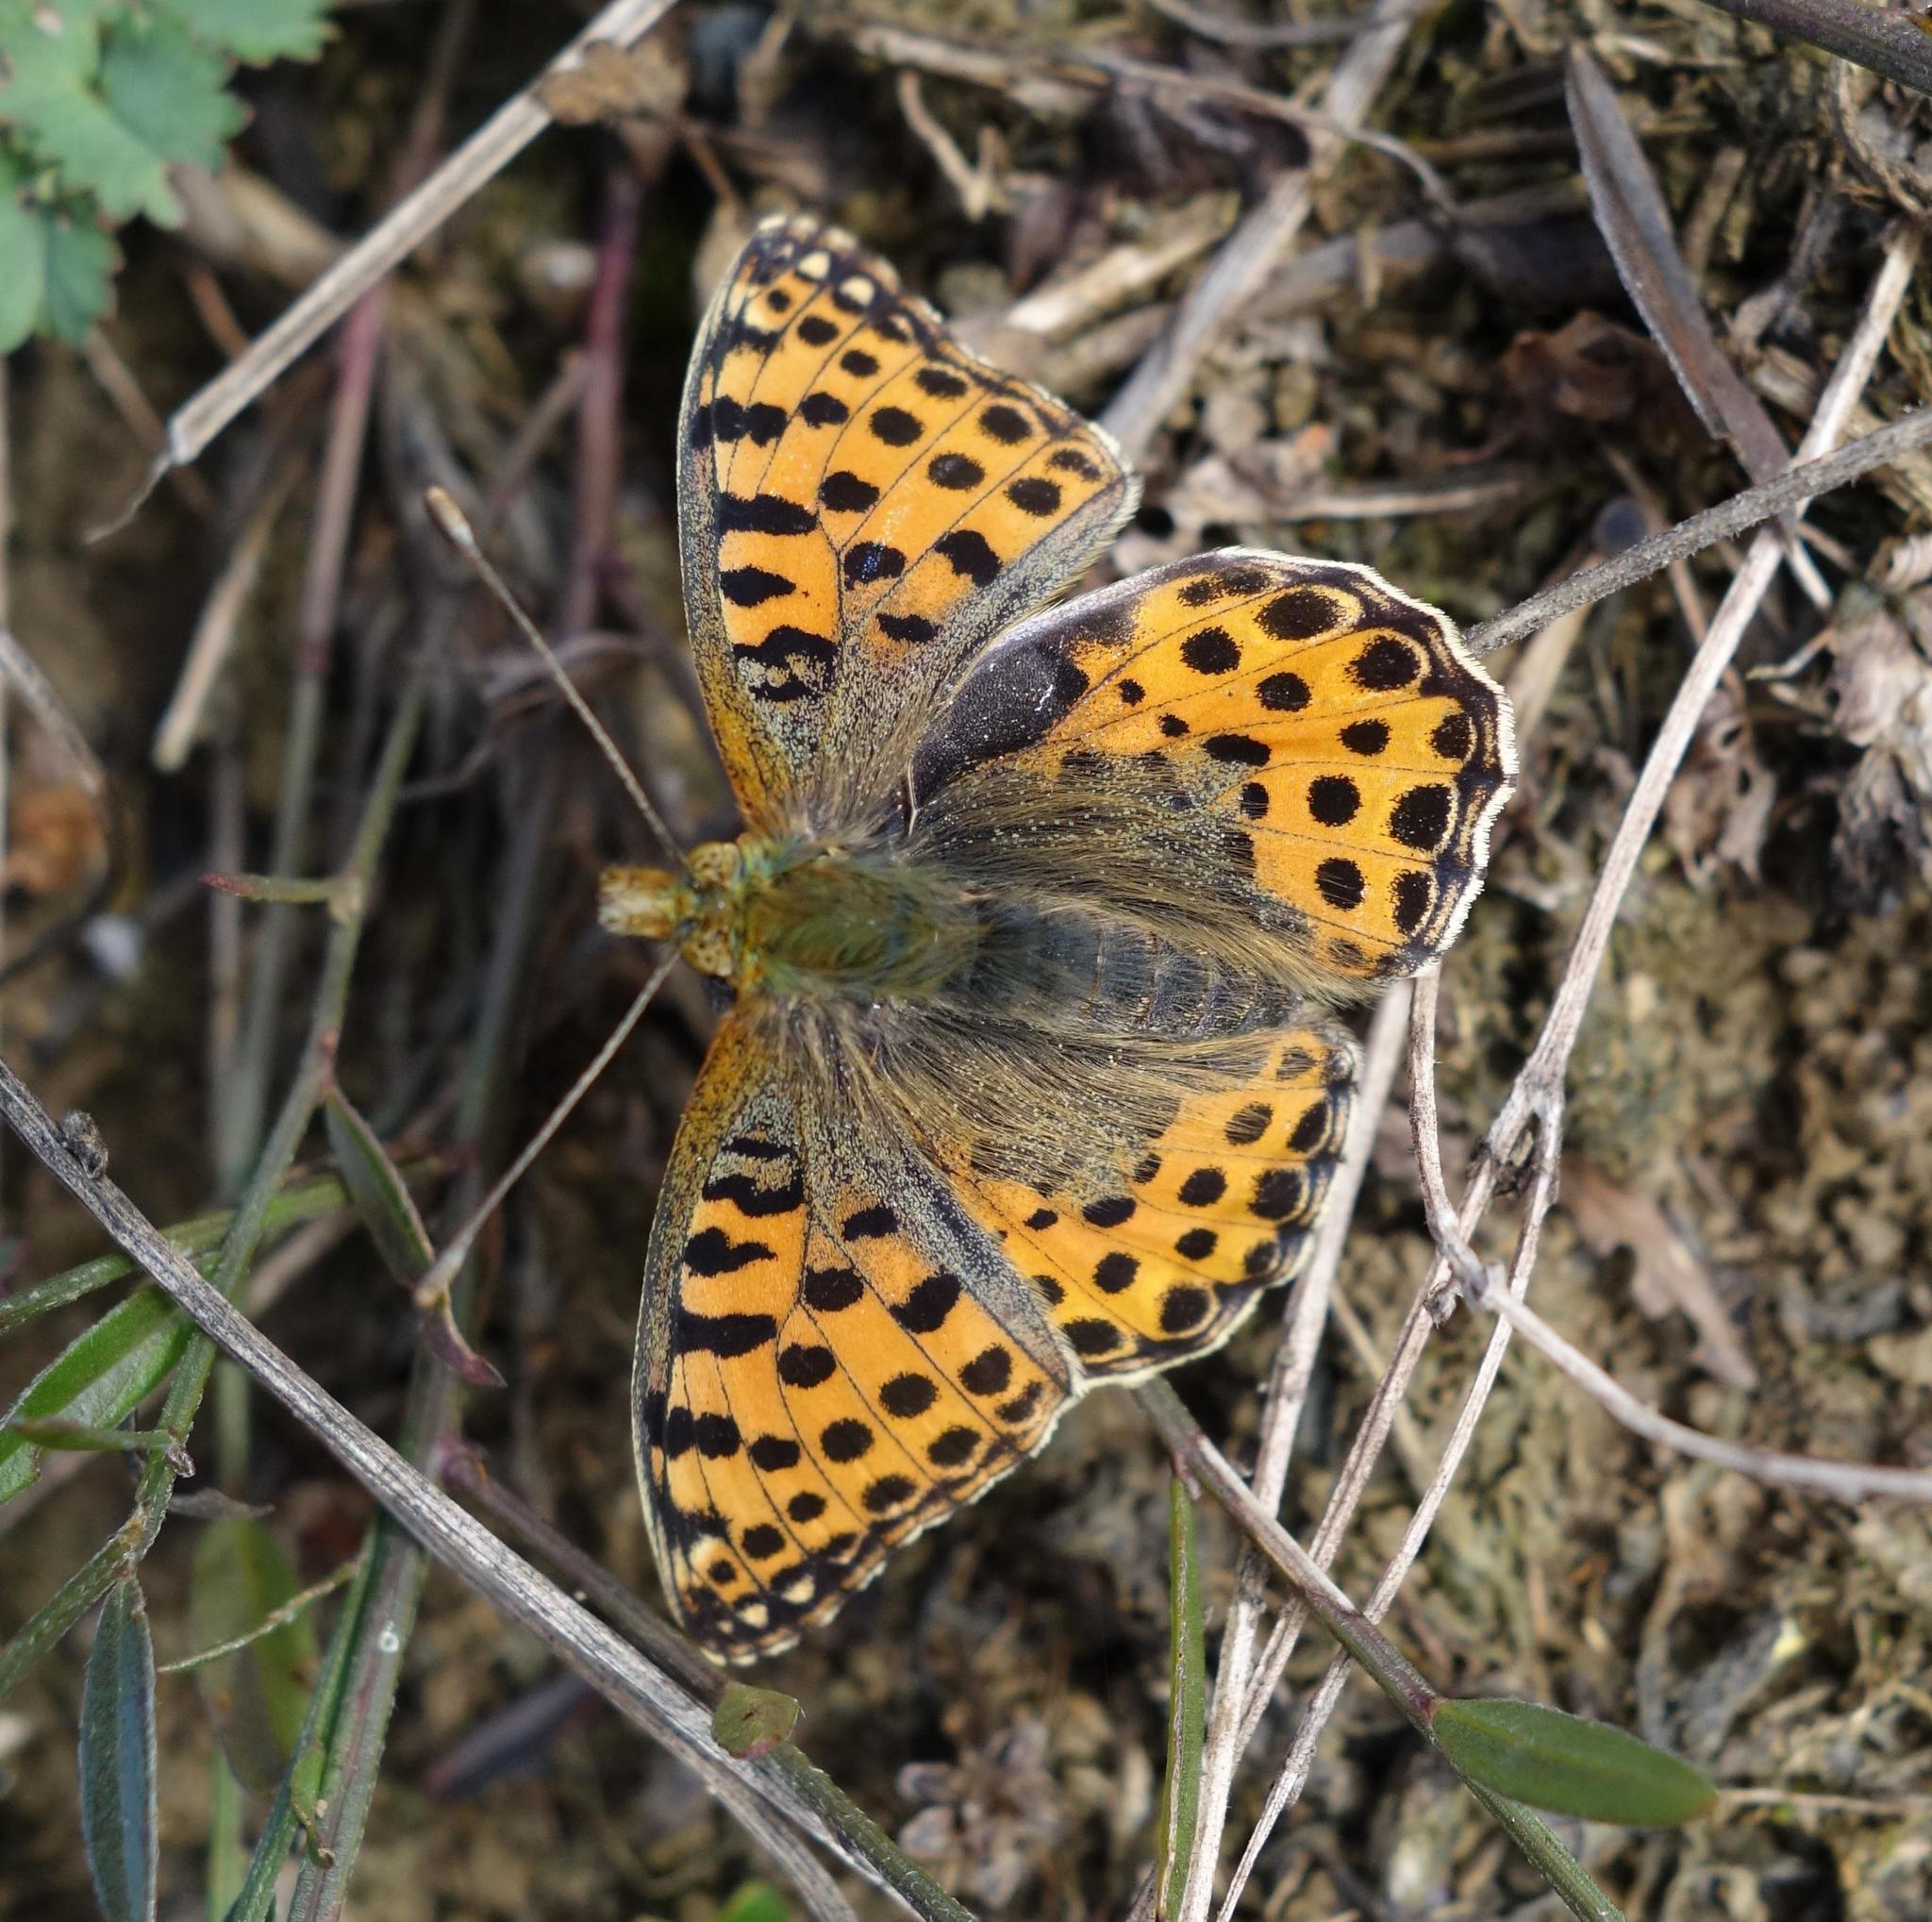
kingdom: Animalia
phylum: Arthropoda
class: Insecta
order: Lepidoptera
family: Nymphalidae
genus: Issoria
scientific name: Issoria lathonia
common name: Queen of spain fritillary
